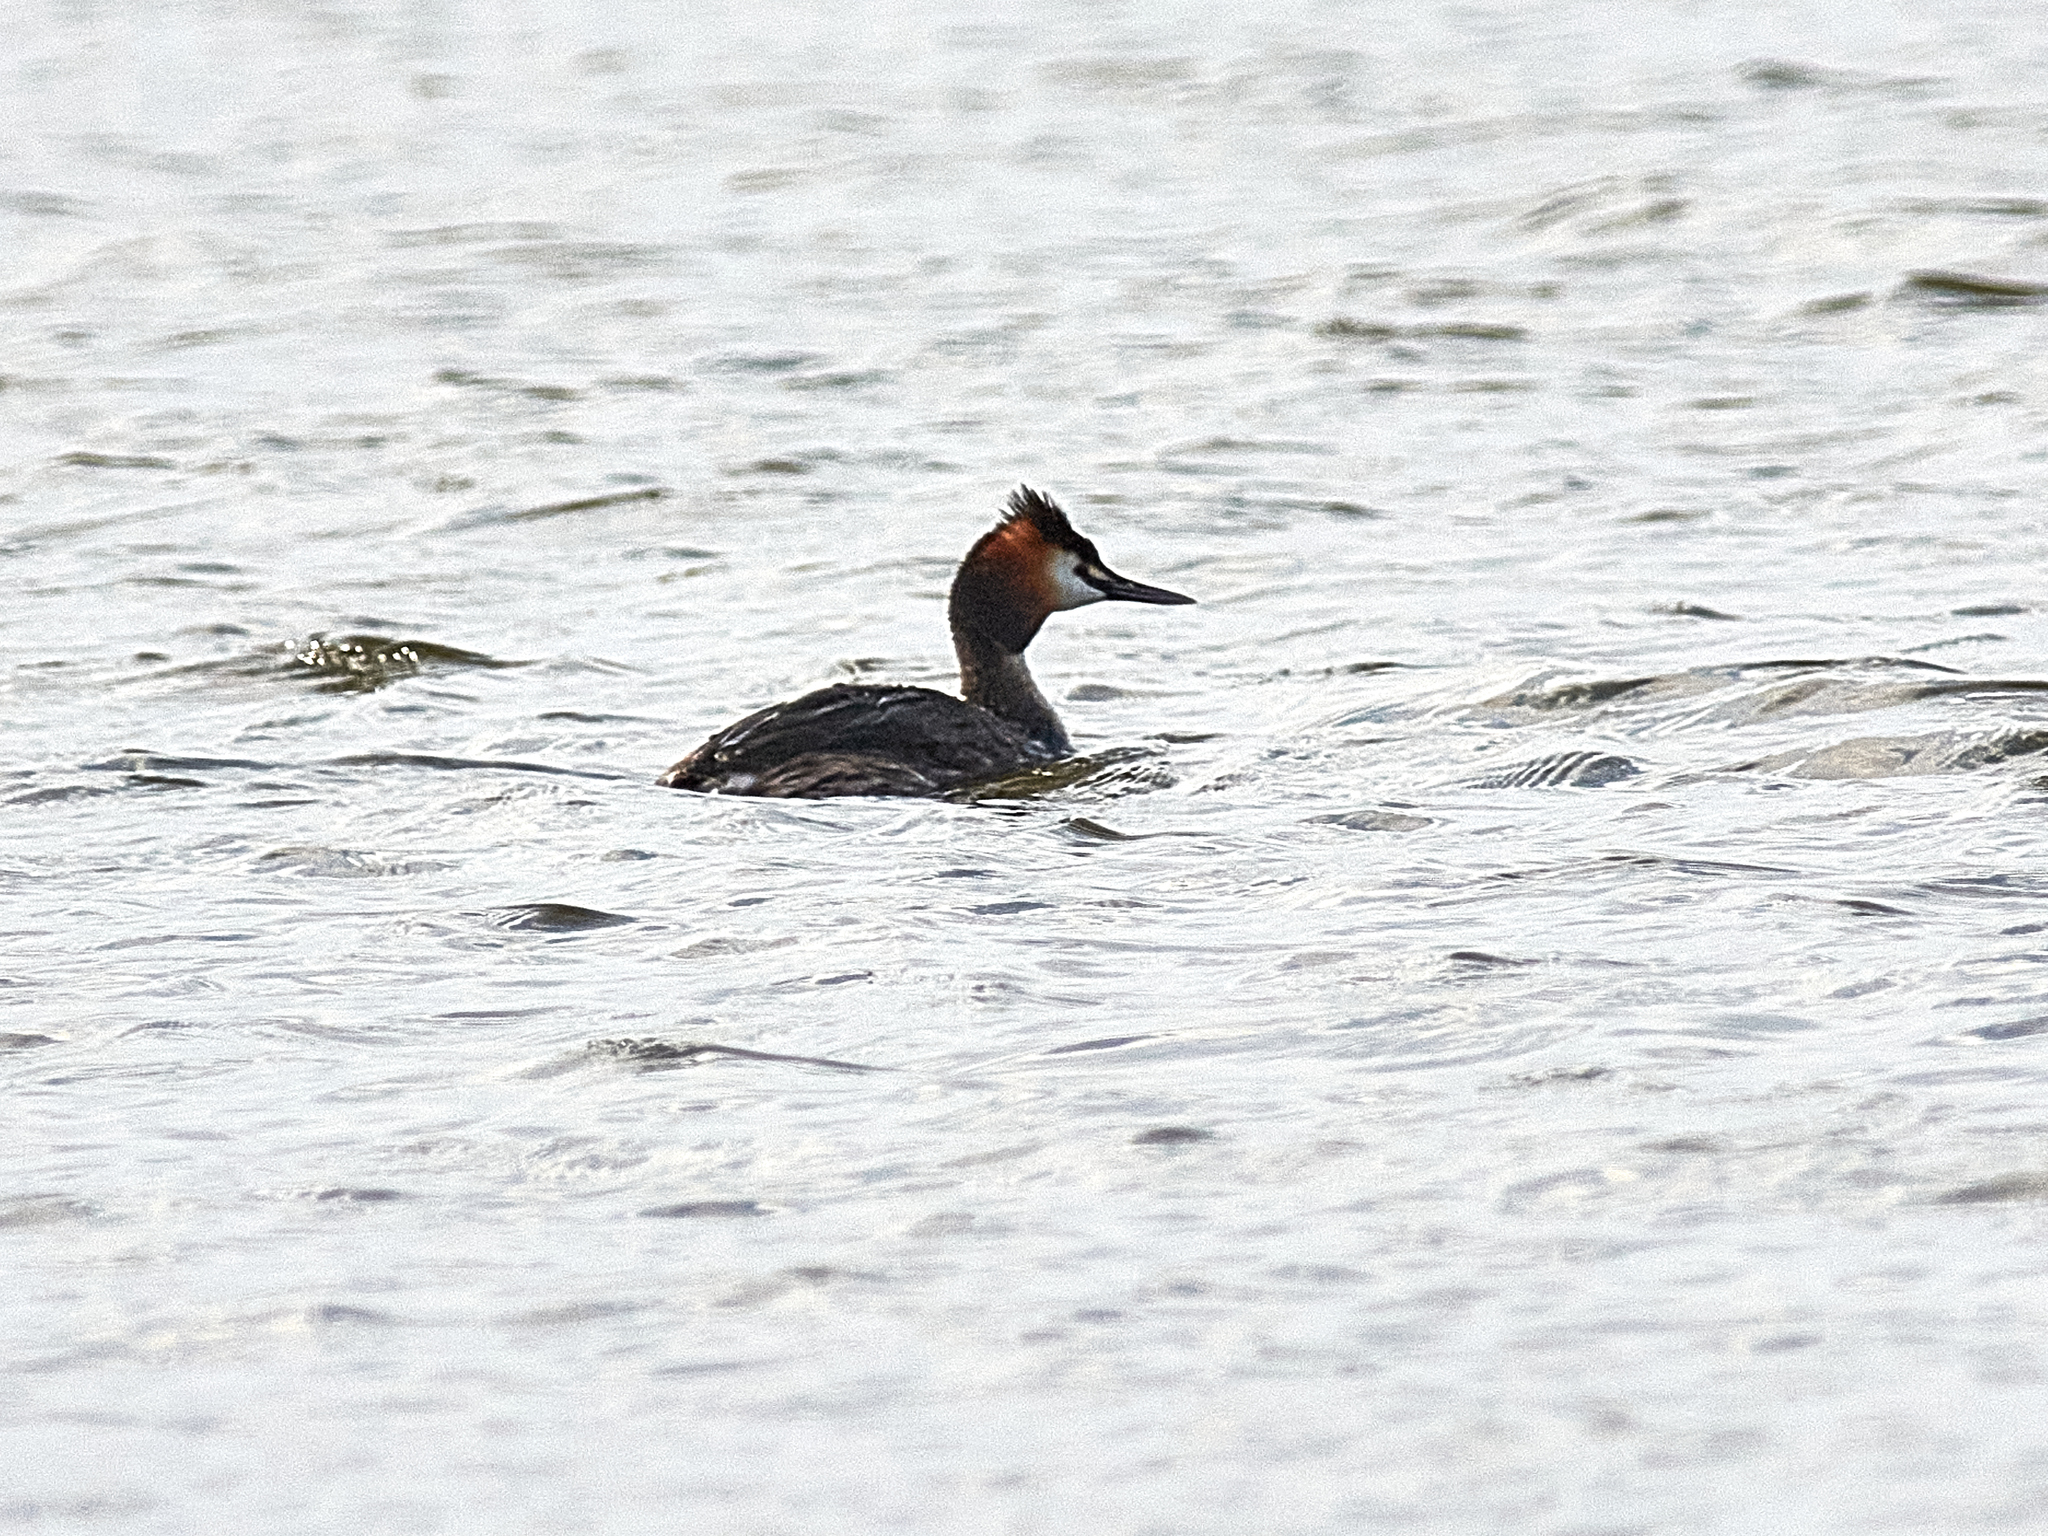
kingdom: Animalia
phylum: Chordata
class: Aves
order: Podicipediformes
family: Podicipedidae
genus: Podiceps
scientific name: Podiceps cristatus
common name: Great crested grebe
